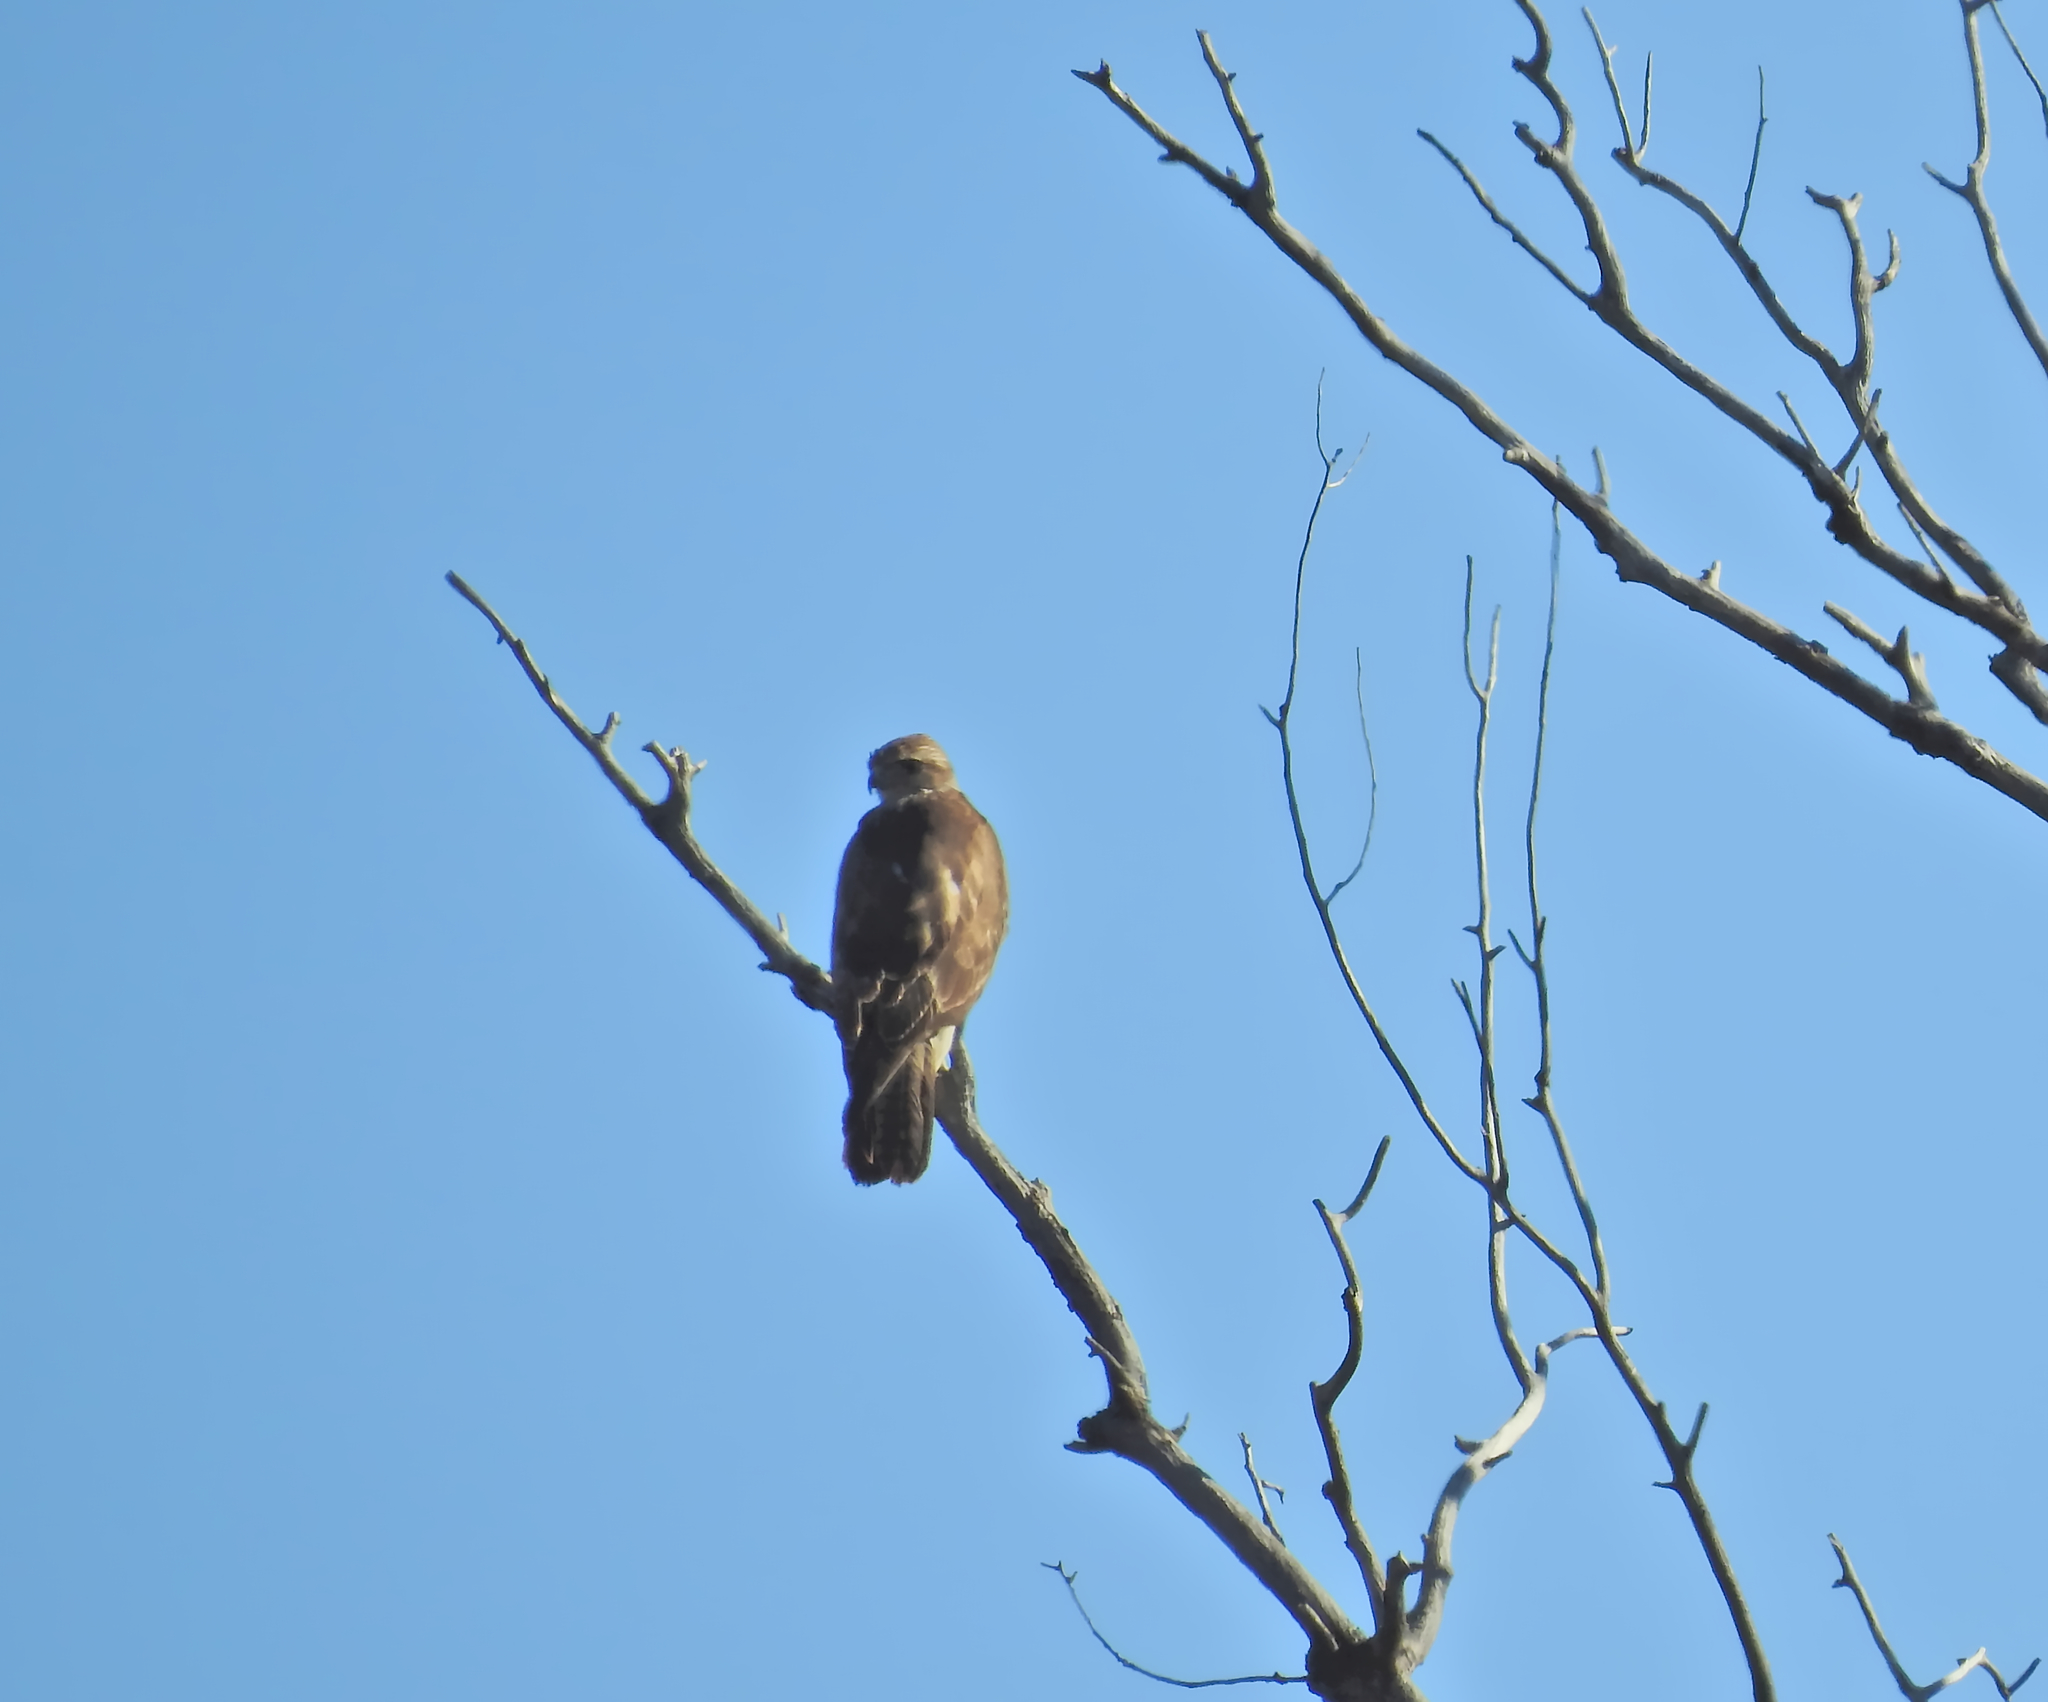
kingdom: Animalia
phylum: Chordata
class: Aves
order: Accipitriformes
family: Accipitridae
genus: Buteo
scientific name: Buteo buteo
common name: Common buzzard
